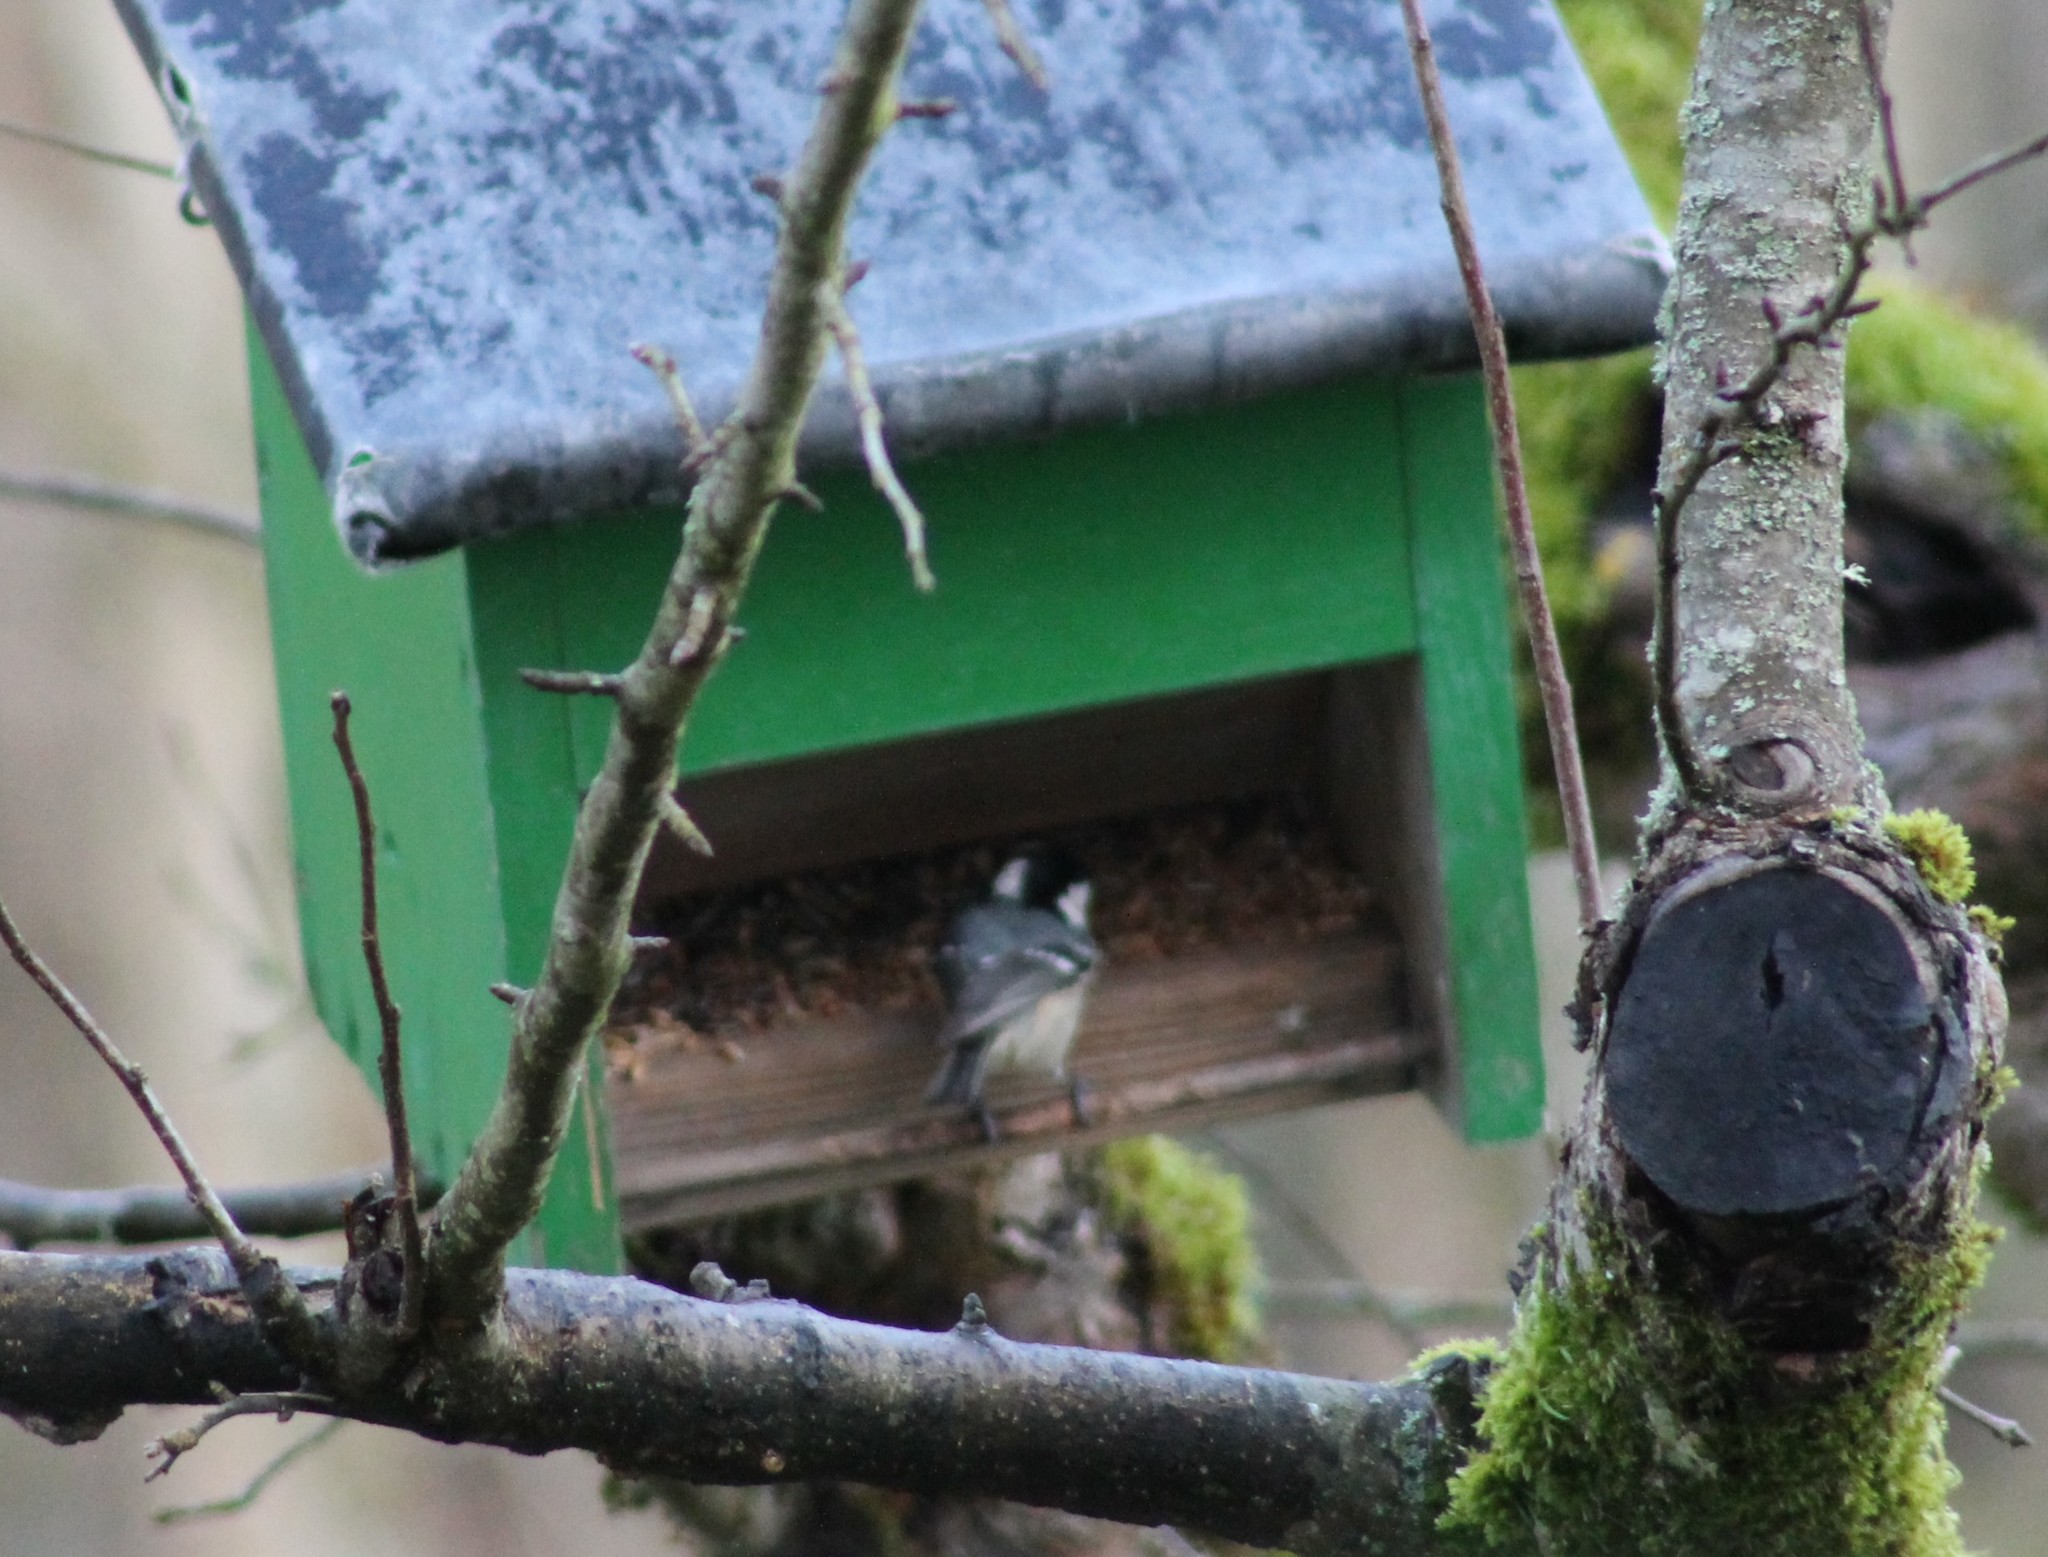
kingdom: Animalia
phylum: Chordata
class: Aves
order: Passeriformes
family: Paridae
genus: Periparus
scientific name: Periparus ater
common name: Coal tit
